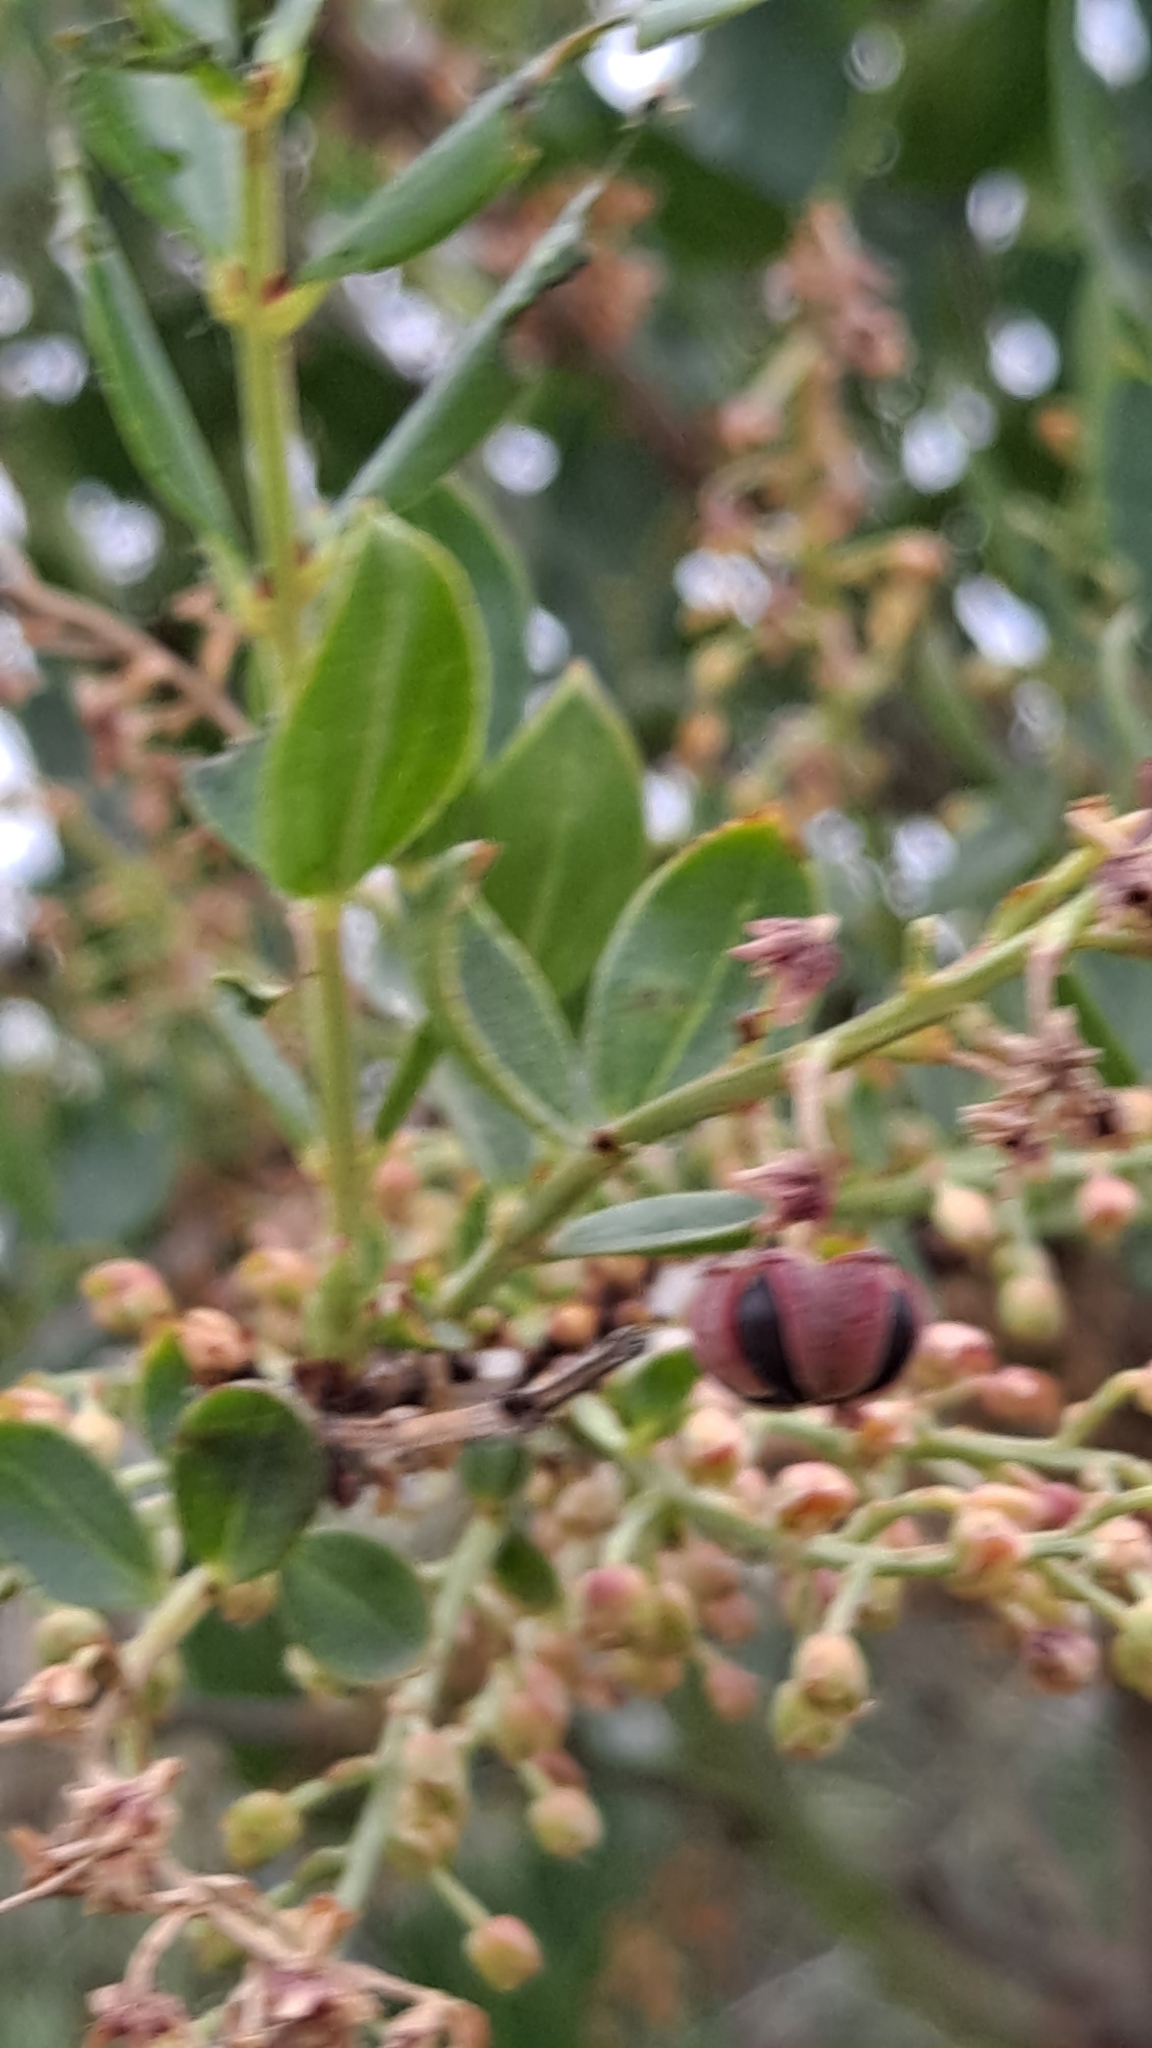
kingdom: Plantae
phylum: Tracheophyta
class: Magnoliopsida
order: Cucurbitales
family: Coriariaceae
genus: Coriaria
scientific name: Coriaria myrtifolia
